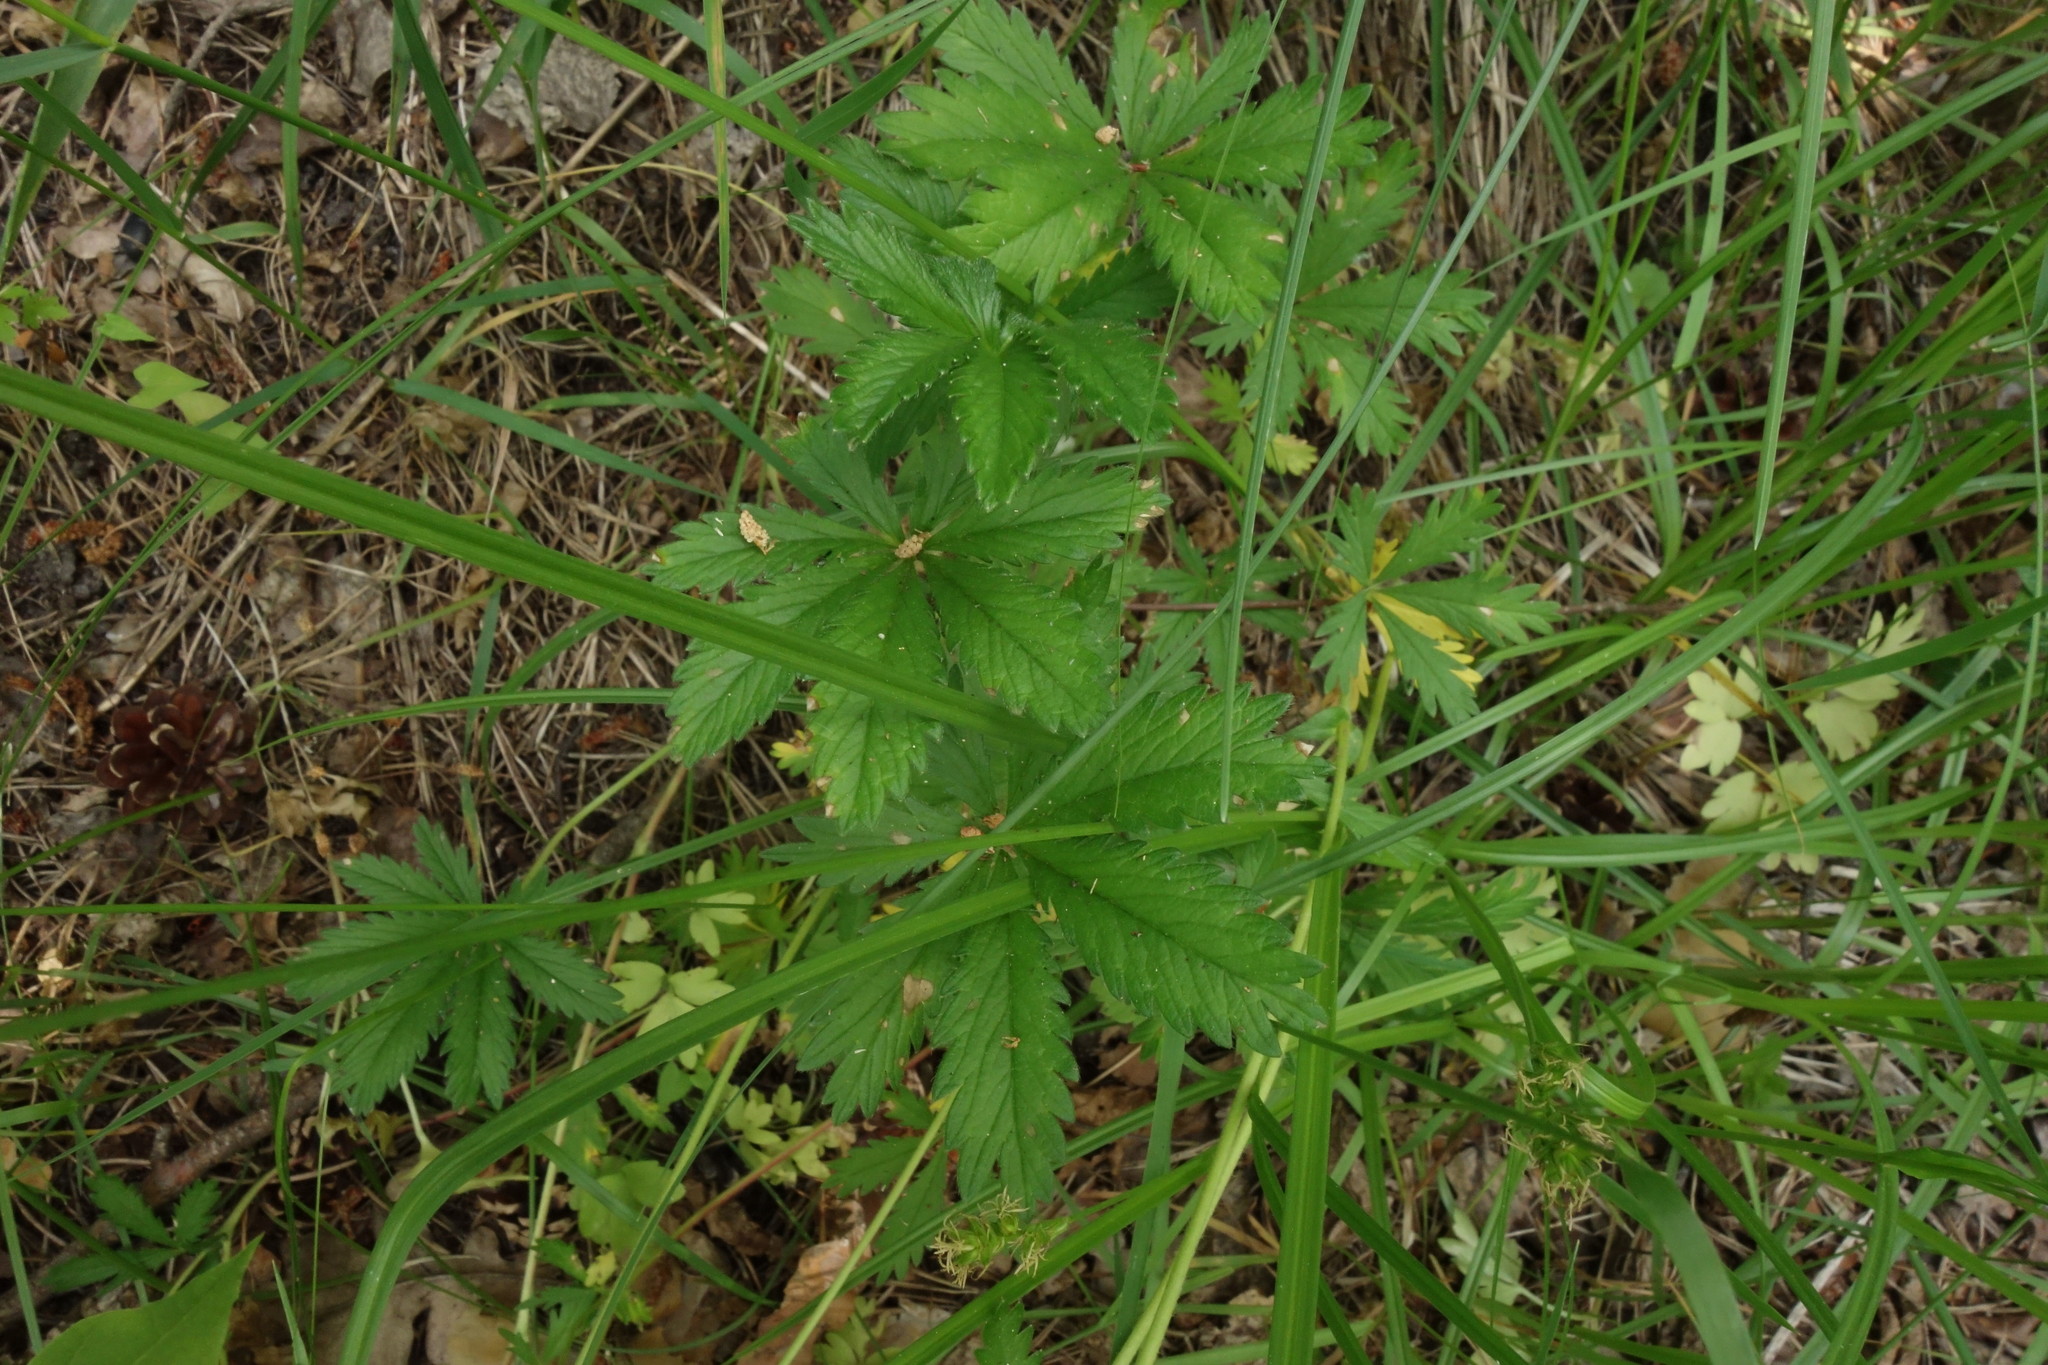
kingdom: Plantae
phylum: Tracheophyta
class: Magnoliopsida
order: Rosales
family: Rosaceae
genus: Potentilla
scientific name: Potentilla thuringiaca
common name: European cinquefoil
